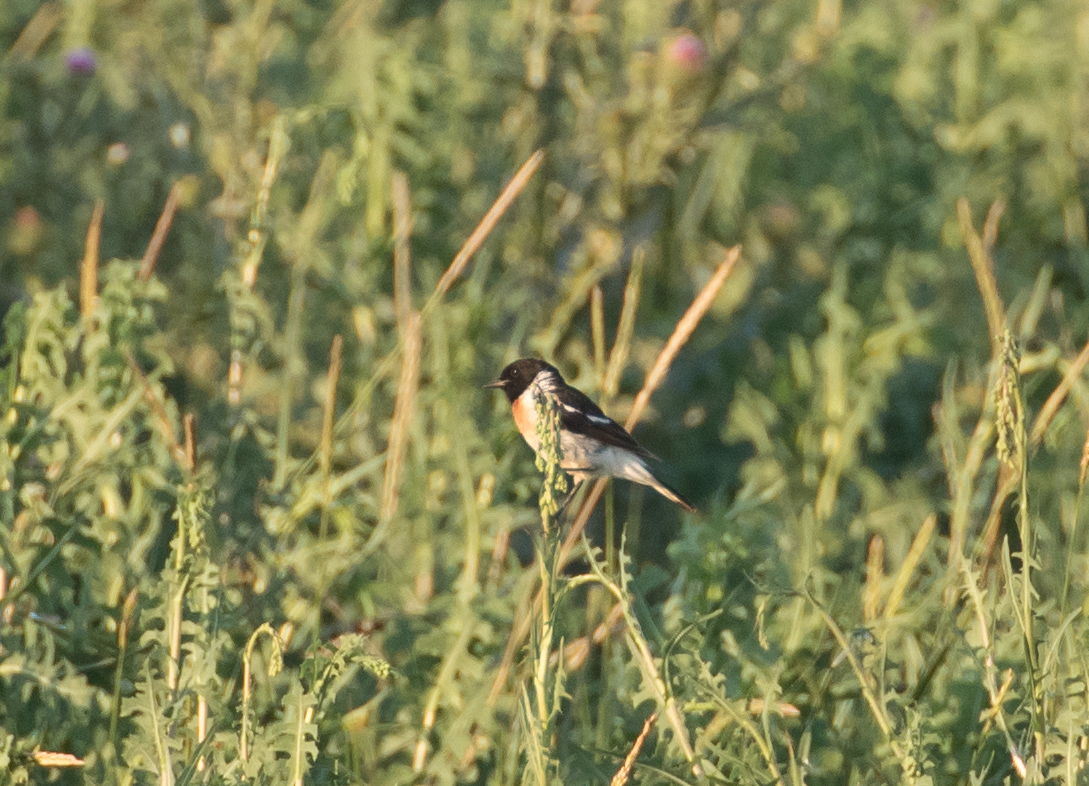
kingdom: Animalia
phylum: Chordata
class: Aves
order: Passeriformes
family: Muscicapidae
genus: Saxicola
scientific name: Saxicola maurus
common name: Siberian stonechat
